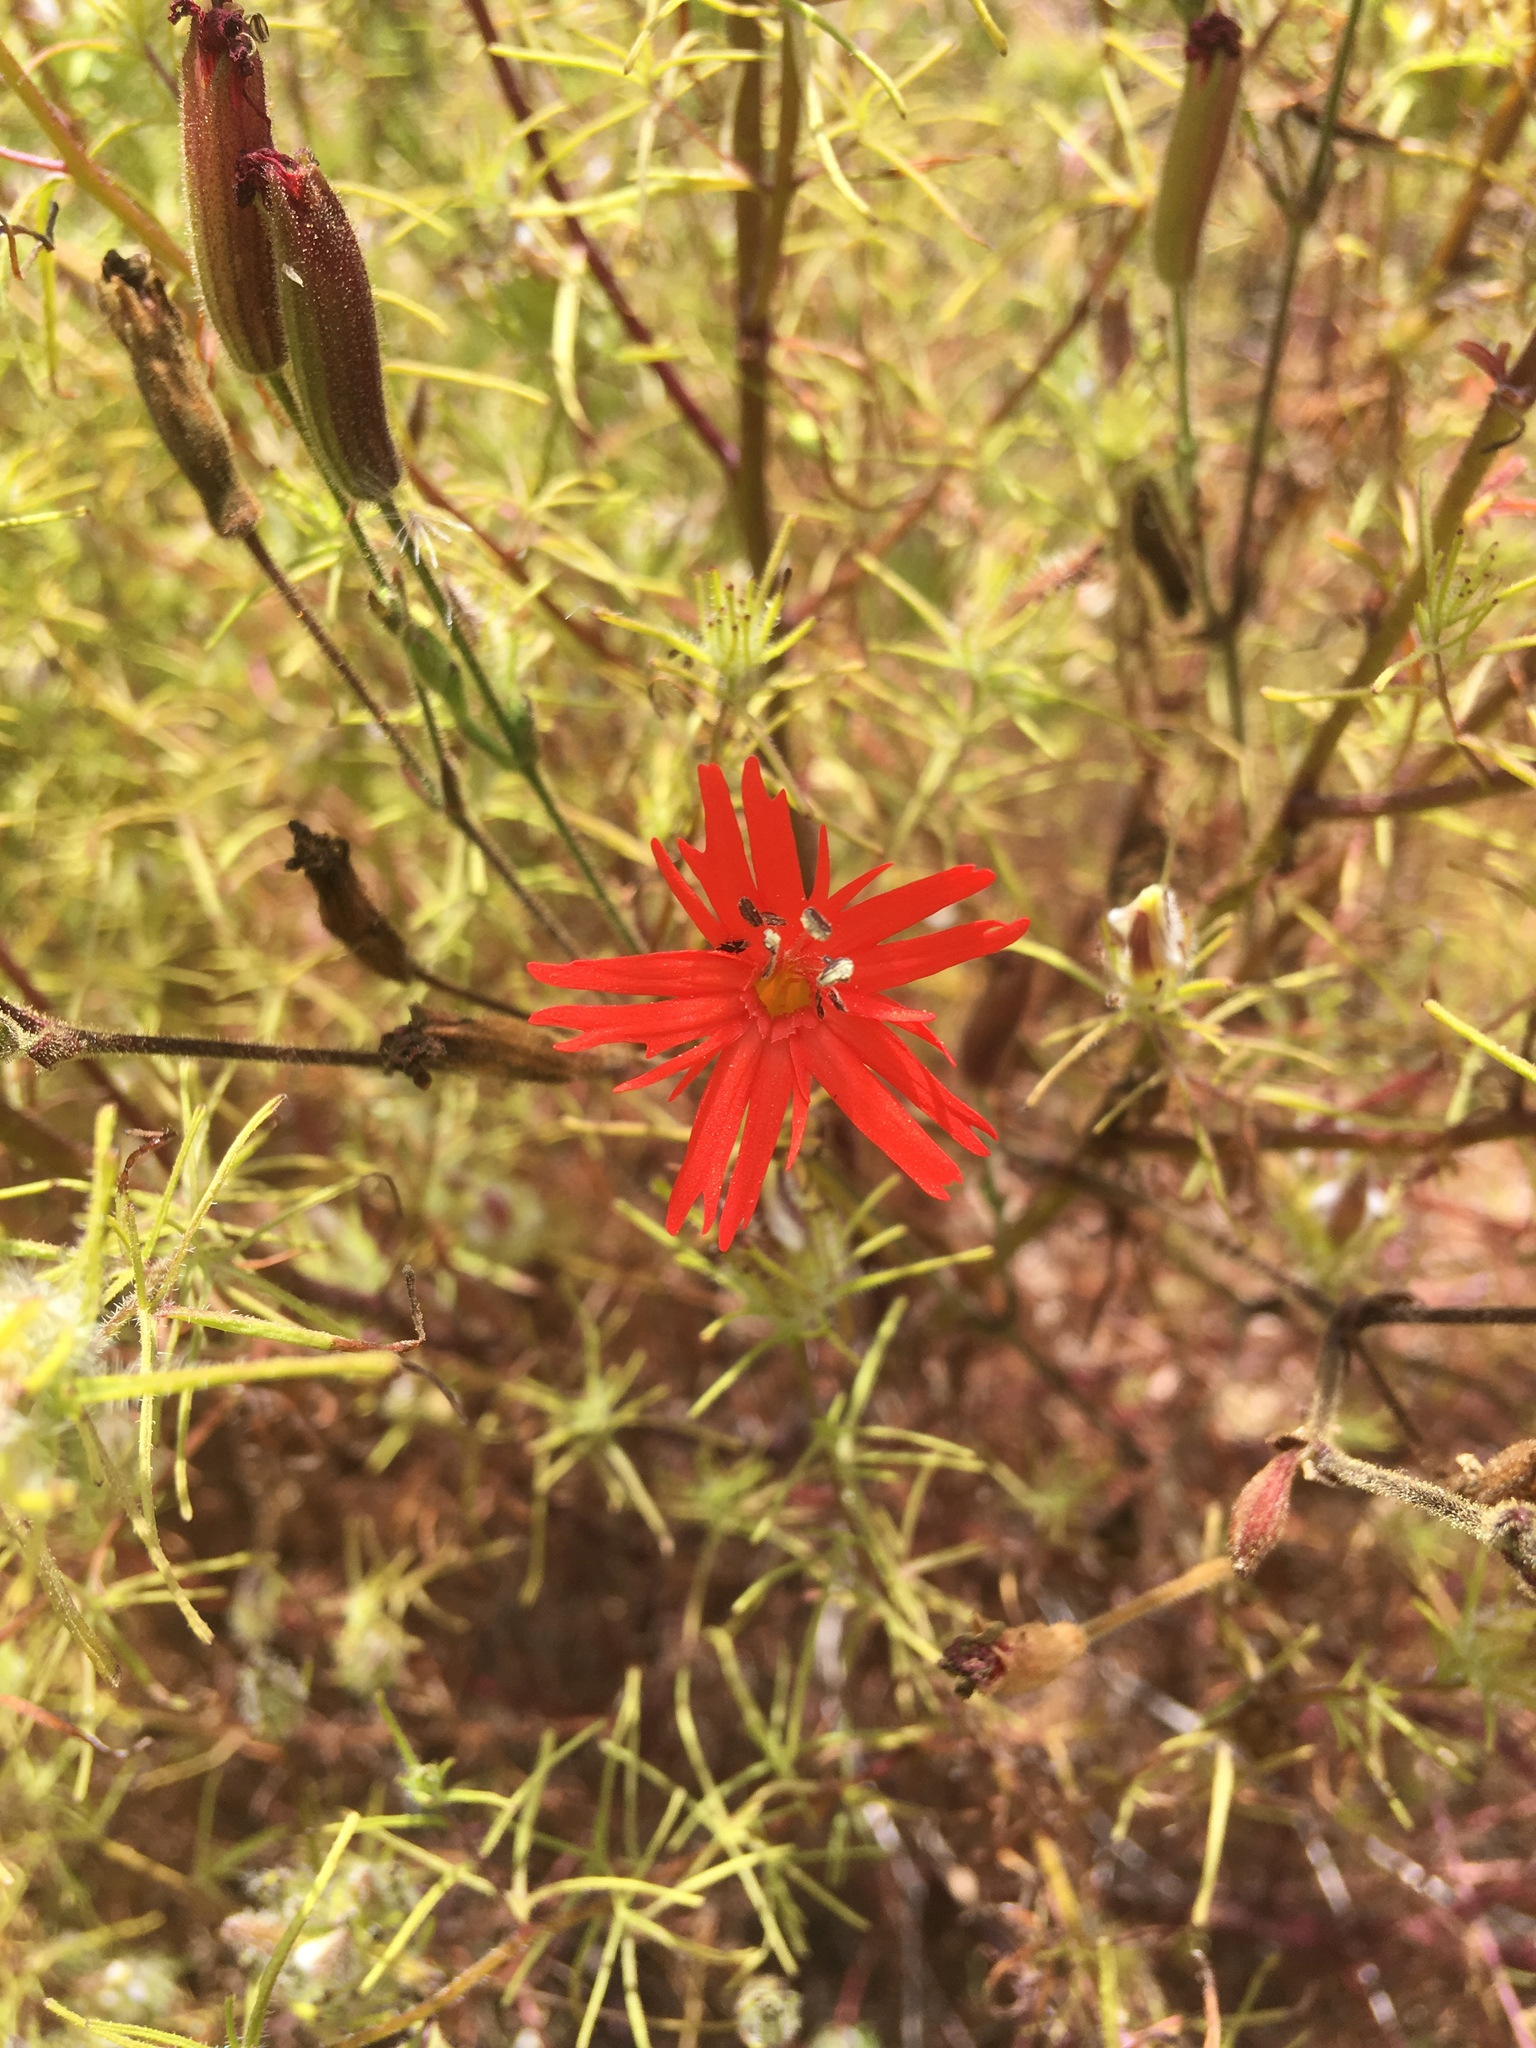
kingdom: Plantae
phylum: Tracheophyta
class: Magnoliopsida
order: Caryophyllales
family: Caryophyllaceae
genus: Silene
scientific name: Silene laciniata
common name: Indian-pink
